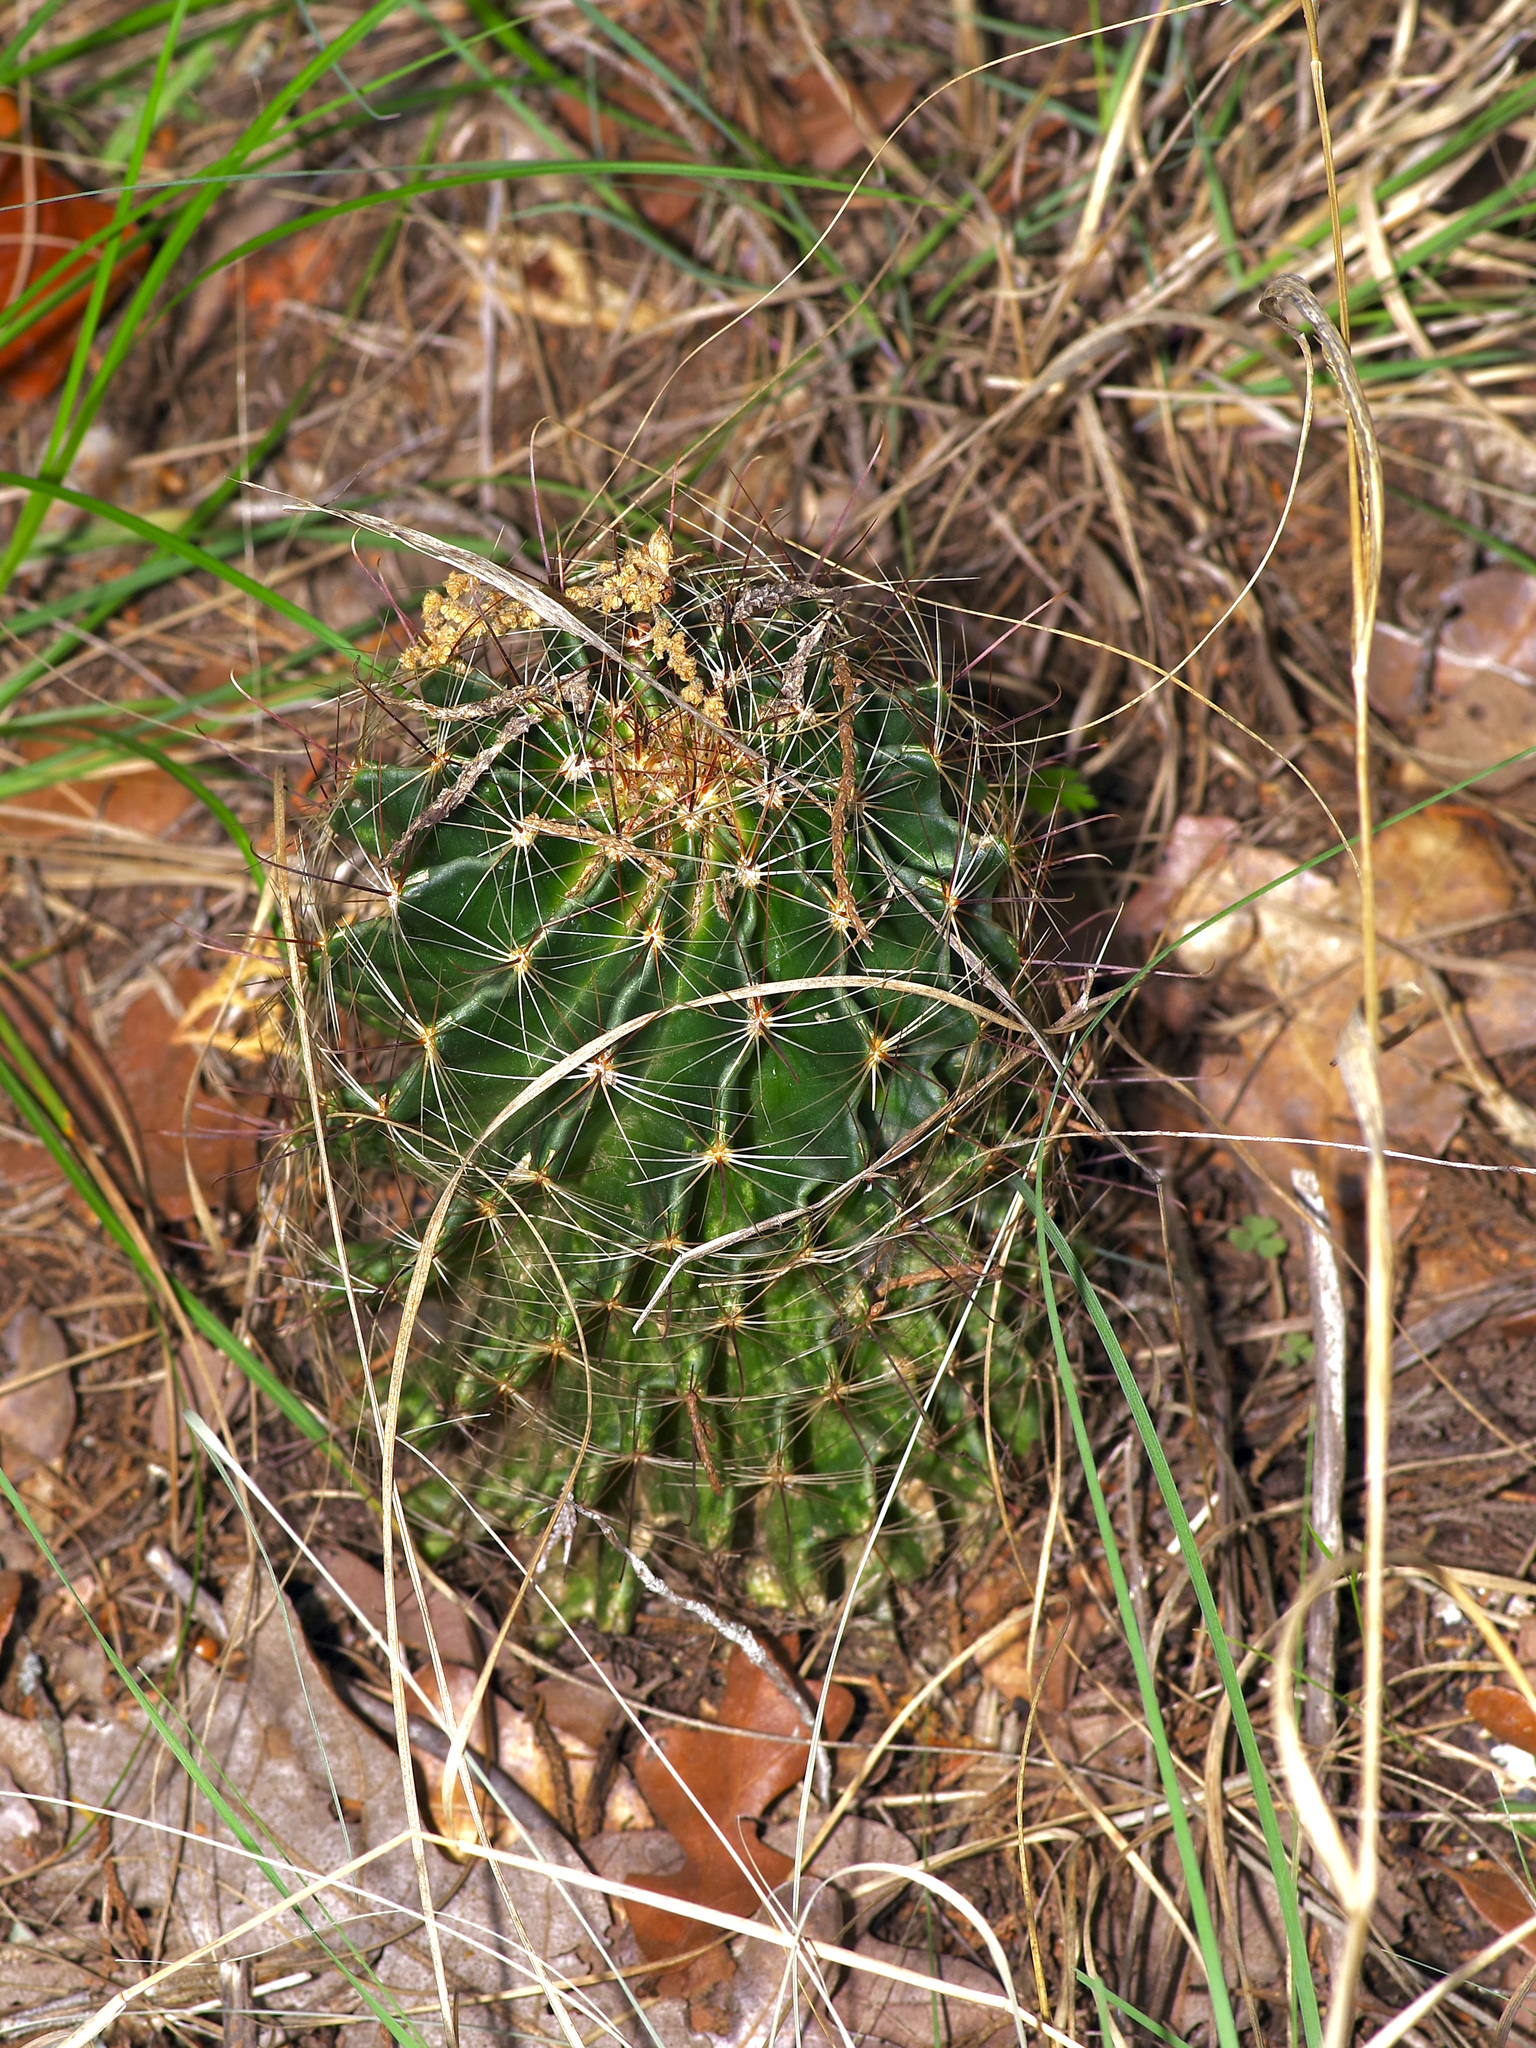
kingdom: Plantae
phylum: Tracheophyta
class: Magnoliopsida
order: Caryophyllales
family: Cactaceae
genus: Thelocactus
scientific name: Thelocactus setispinus
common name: Miniature barrel cactus
